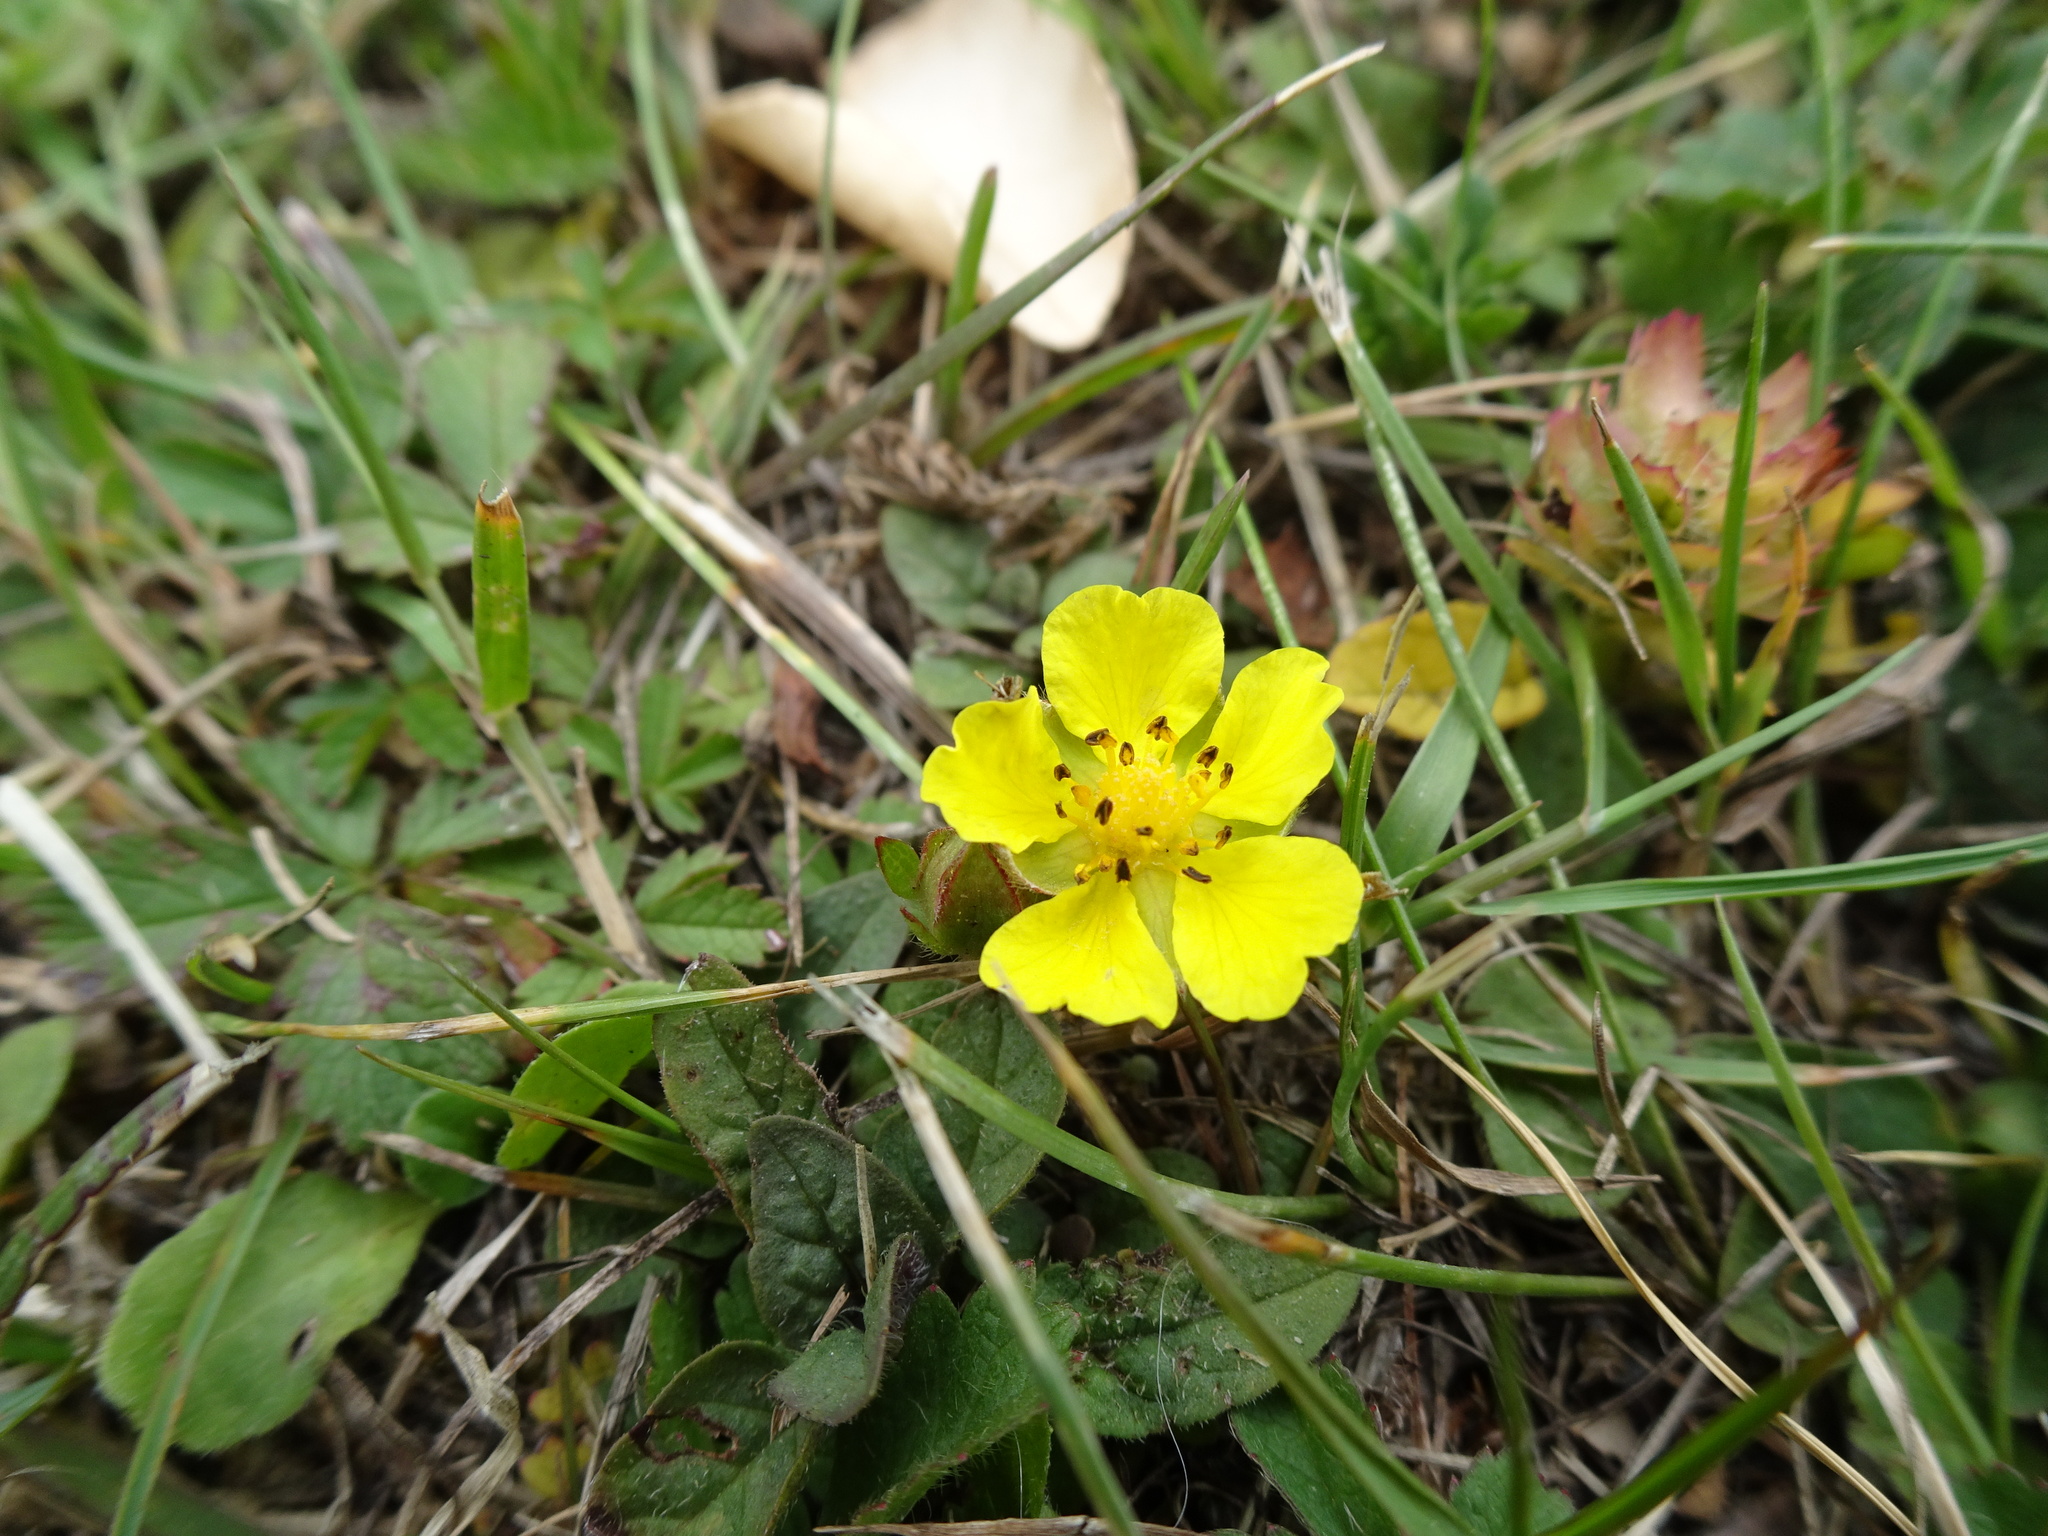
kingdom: Plantae
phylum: Tracheophyta
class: Magnoliopsida
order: Rosales
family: Rosaceae
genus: Potentilla
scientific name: Potentilla reptans
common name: Creeping cinquefoil
